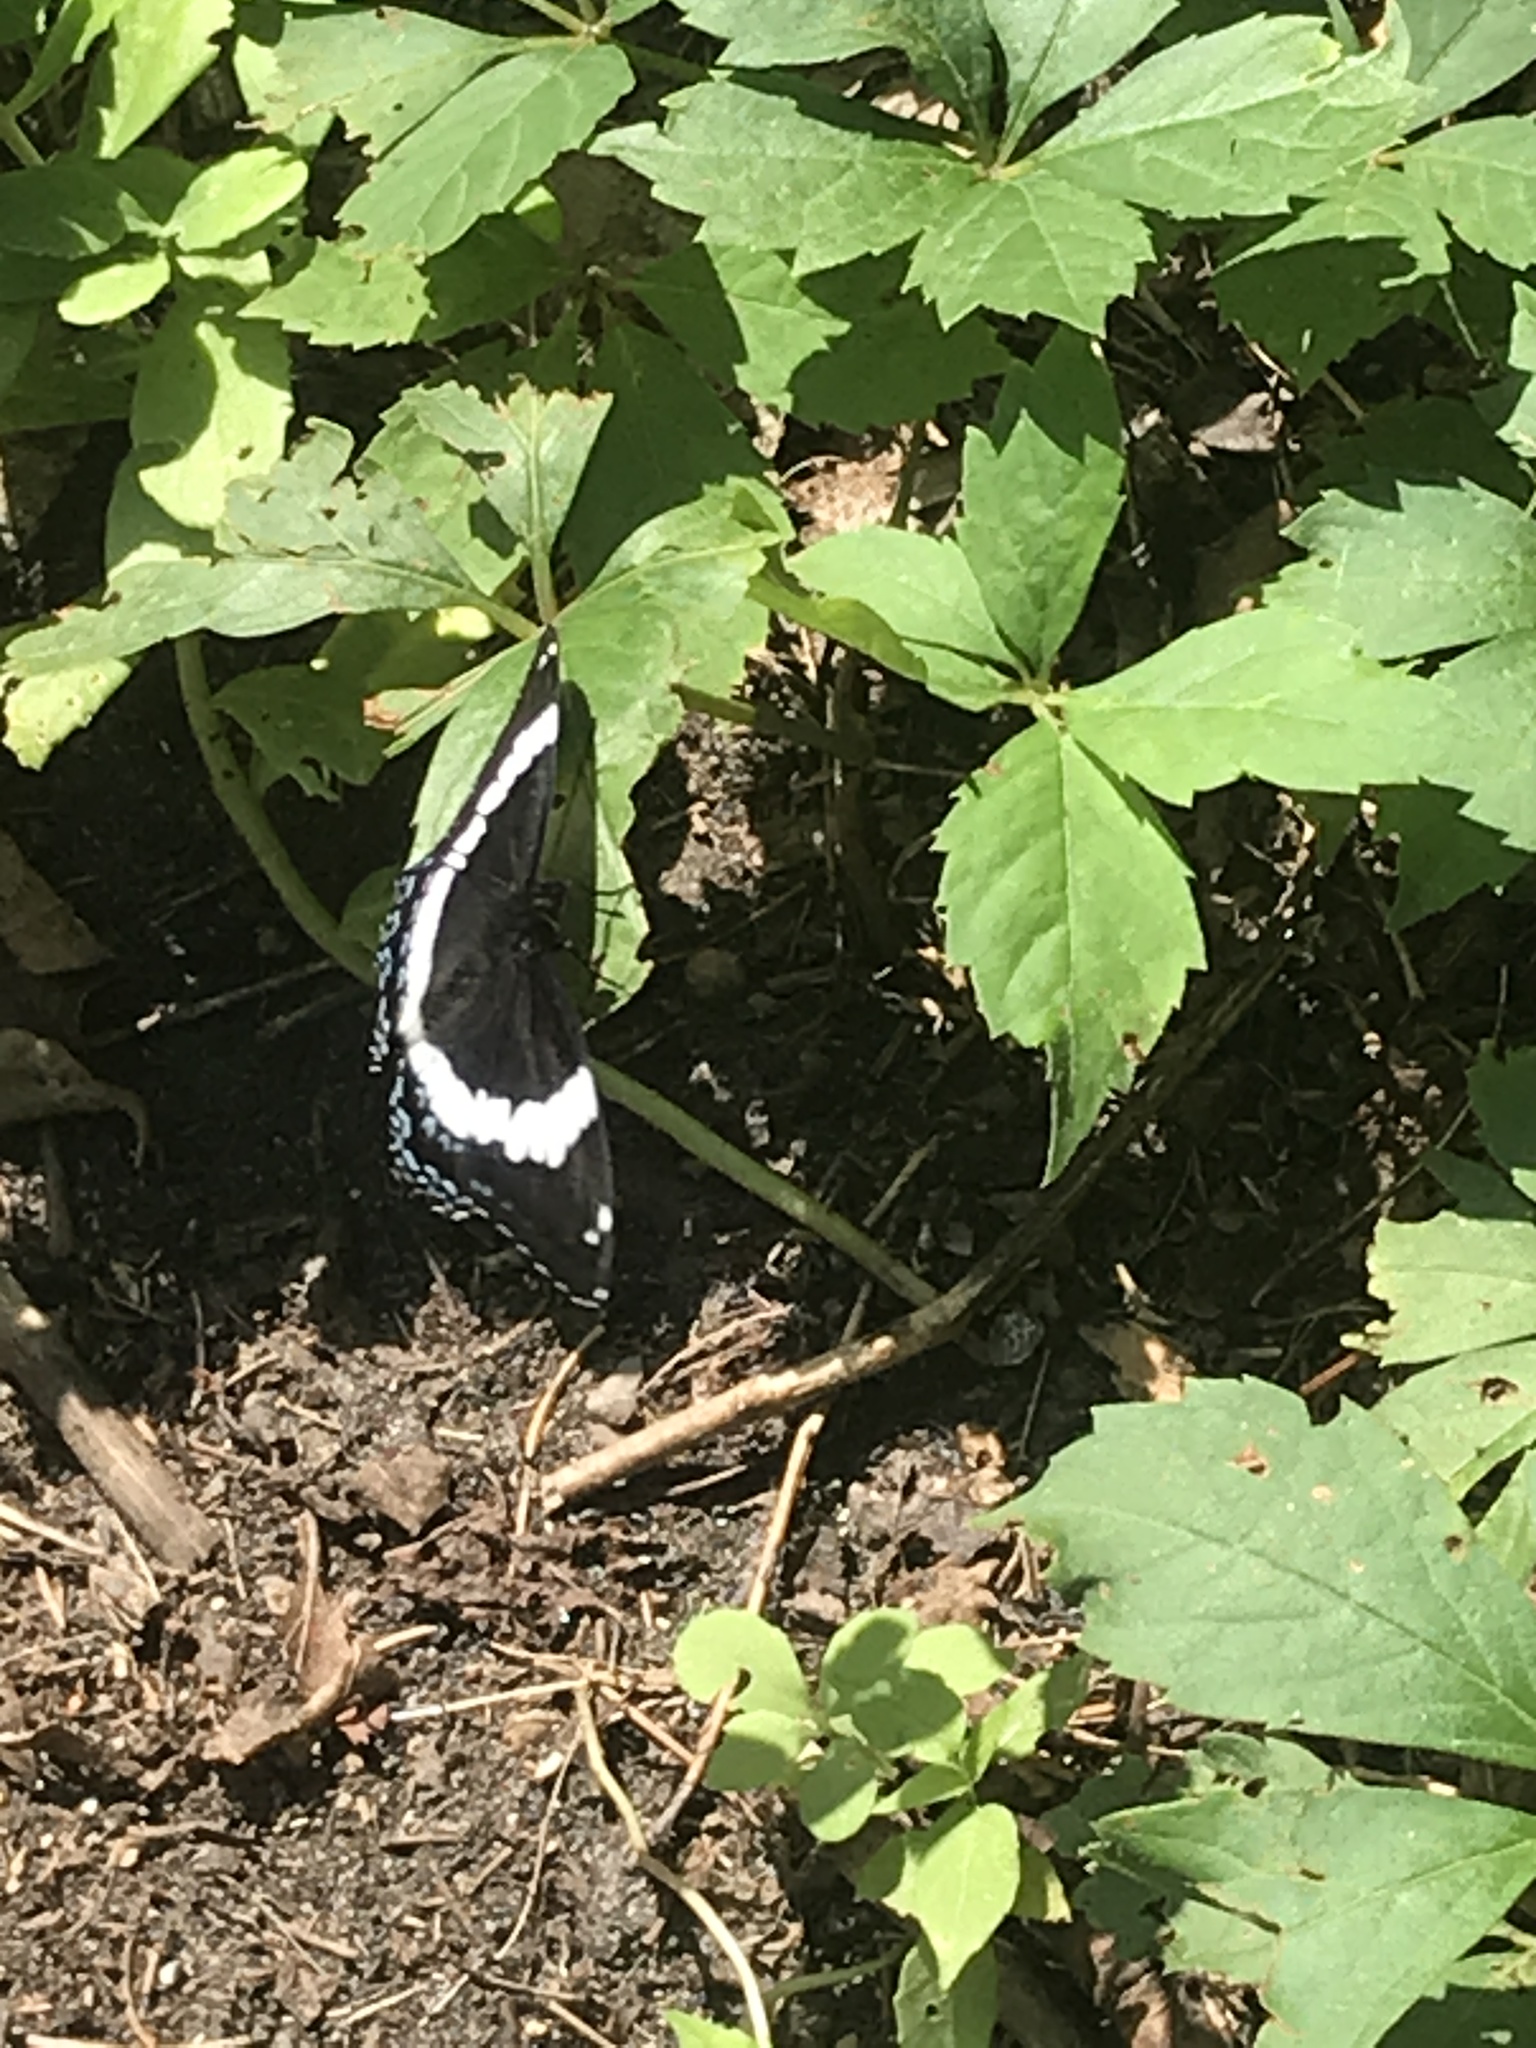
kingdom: Animalia
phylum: Arthropoda
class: Insecta
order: Lepidoptera
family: Nymphalidae
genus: Limenitis
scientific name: Limenitis arthemis
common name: Red-spotted admiral
